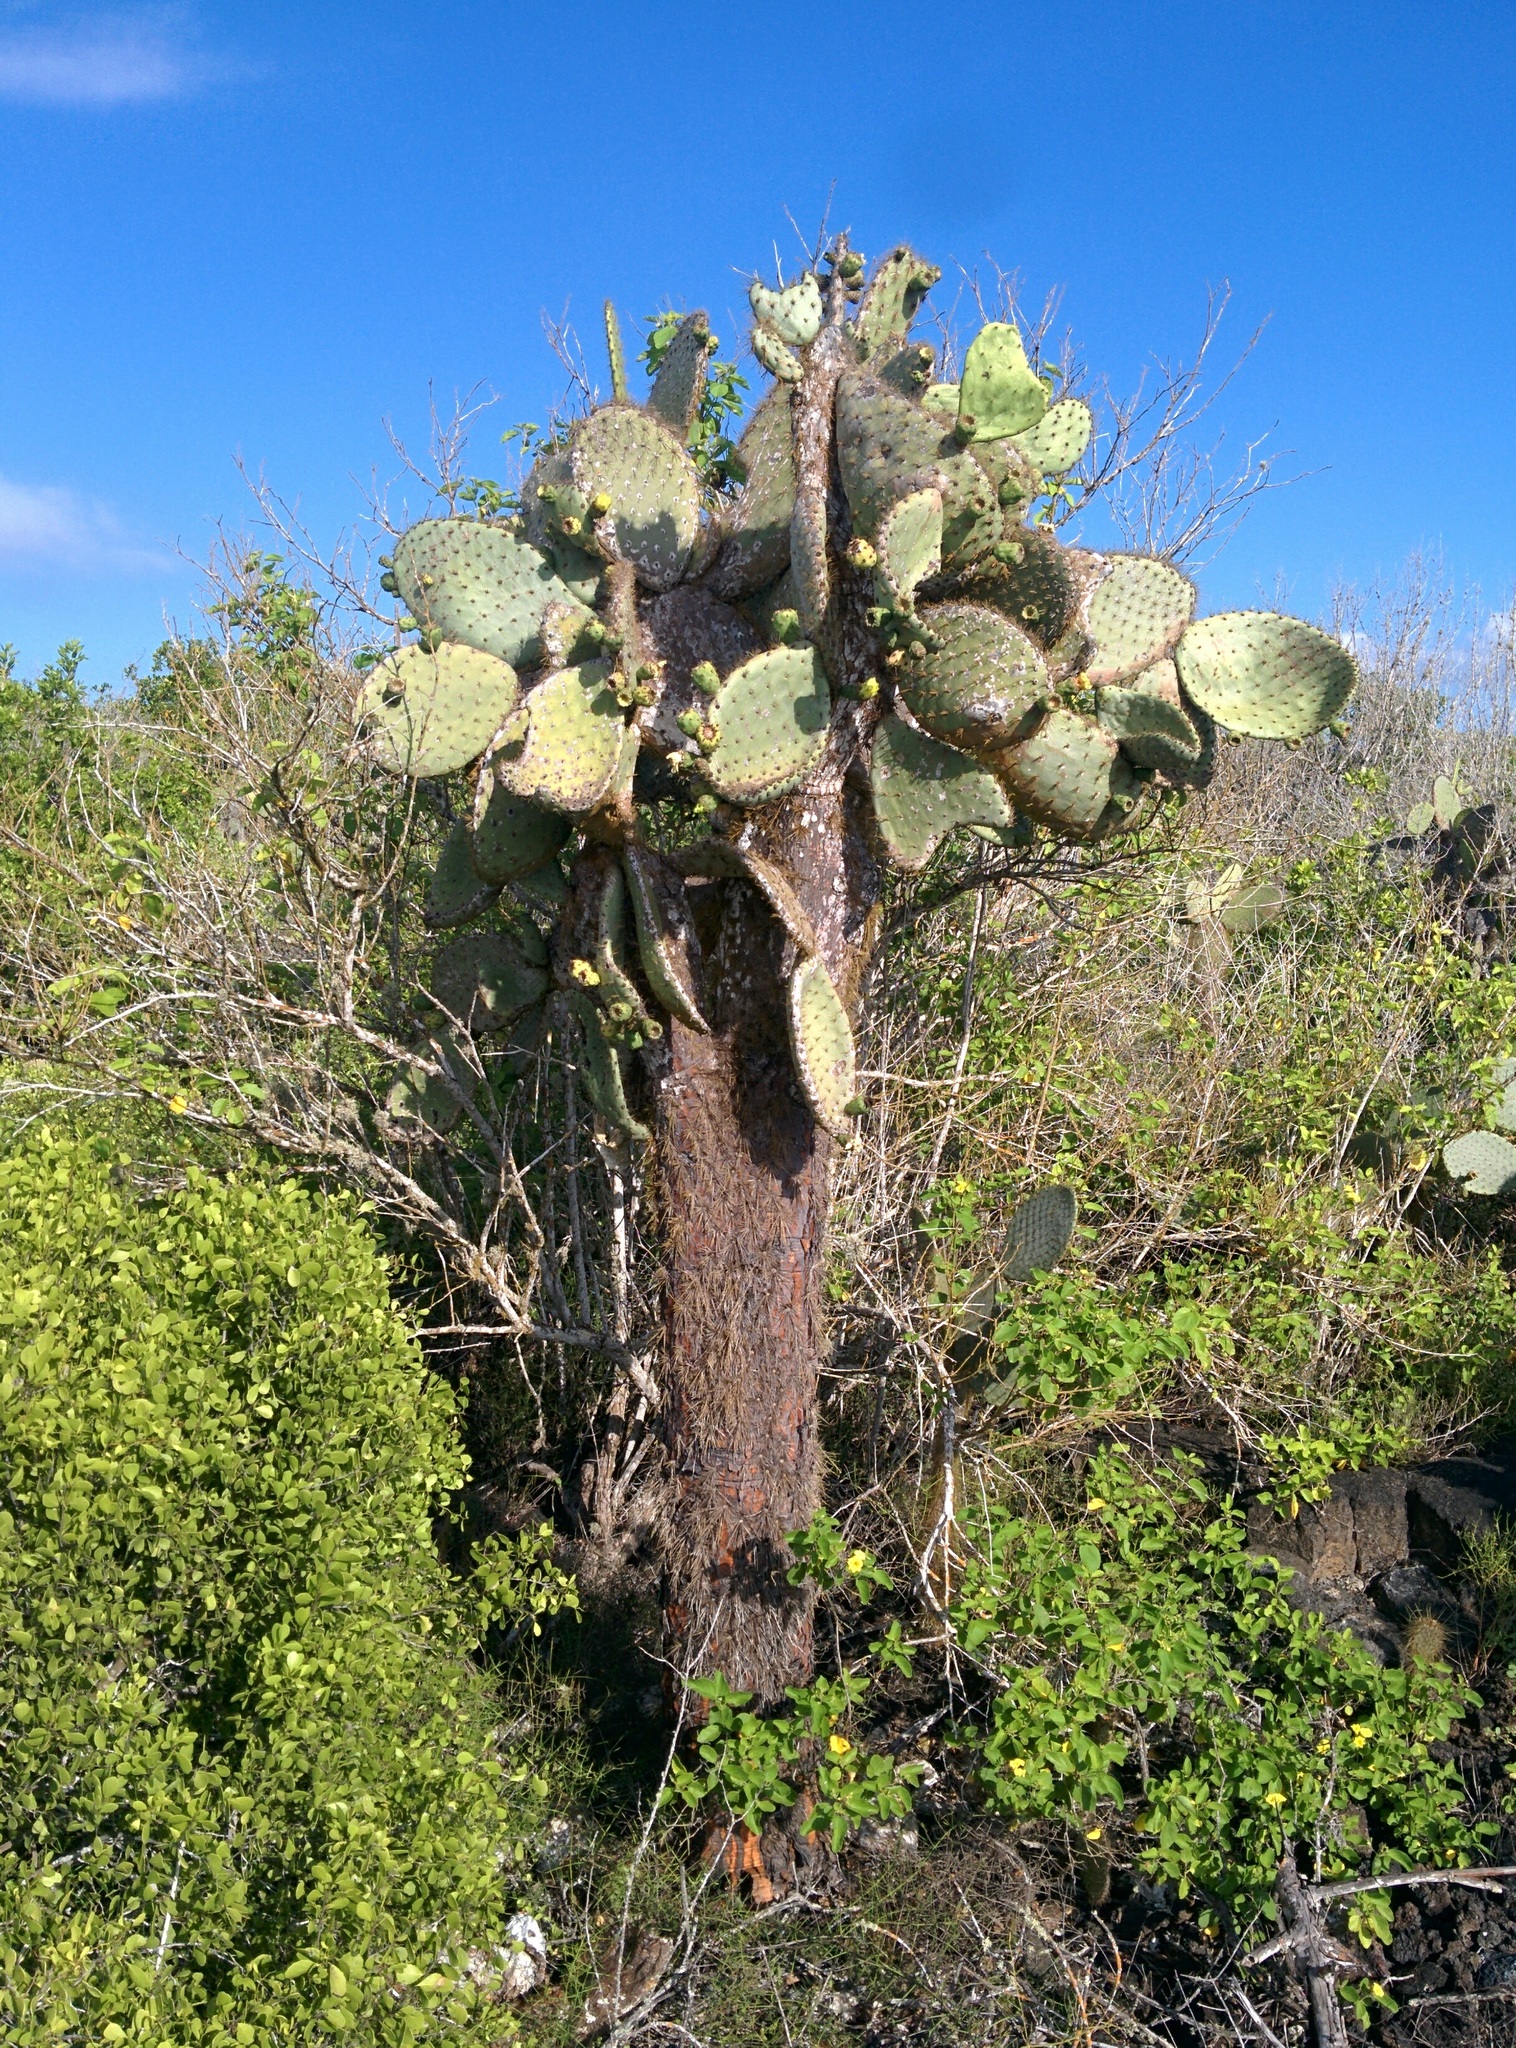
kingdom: Plantae
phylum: Tracheophyta
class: Magnoliopsida
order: Caryophyllales
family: Cactaceae
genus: Opuntia
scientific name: Opuntia galapageia
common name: Galápagos prickly pear
